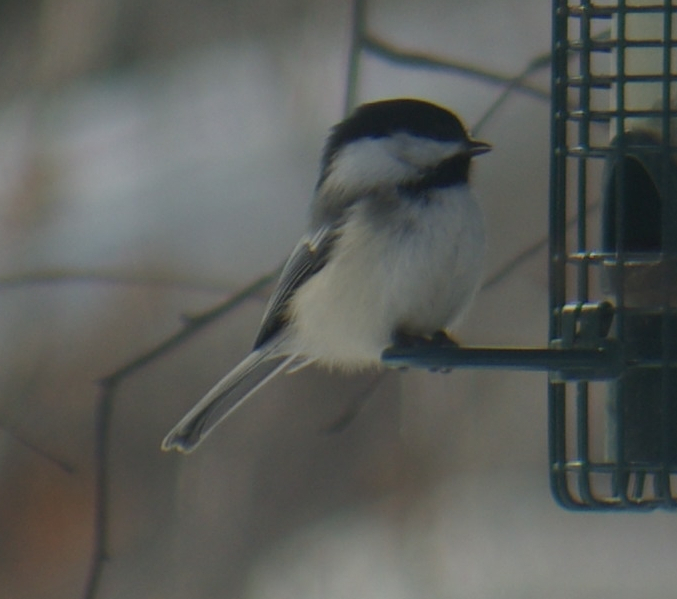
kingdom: Animalia
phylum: Chordata
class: Aves
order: Passeriformes
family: Paridae
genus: Poecile
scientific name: Poecile atricapillus
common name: Black-capped chickadee
